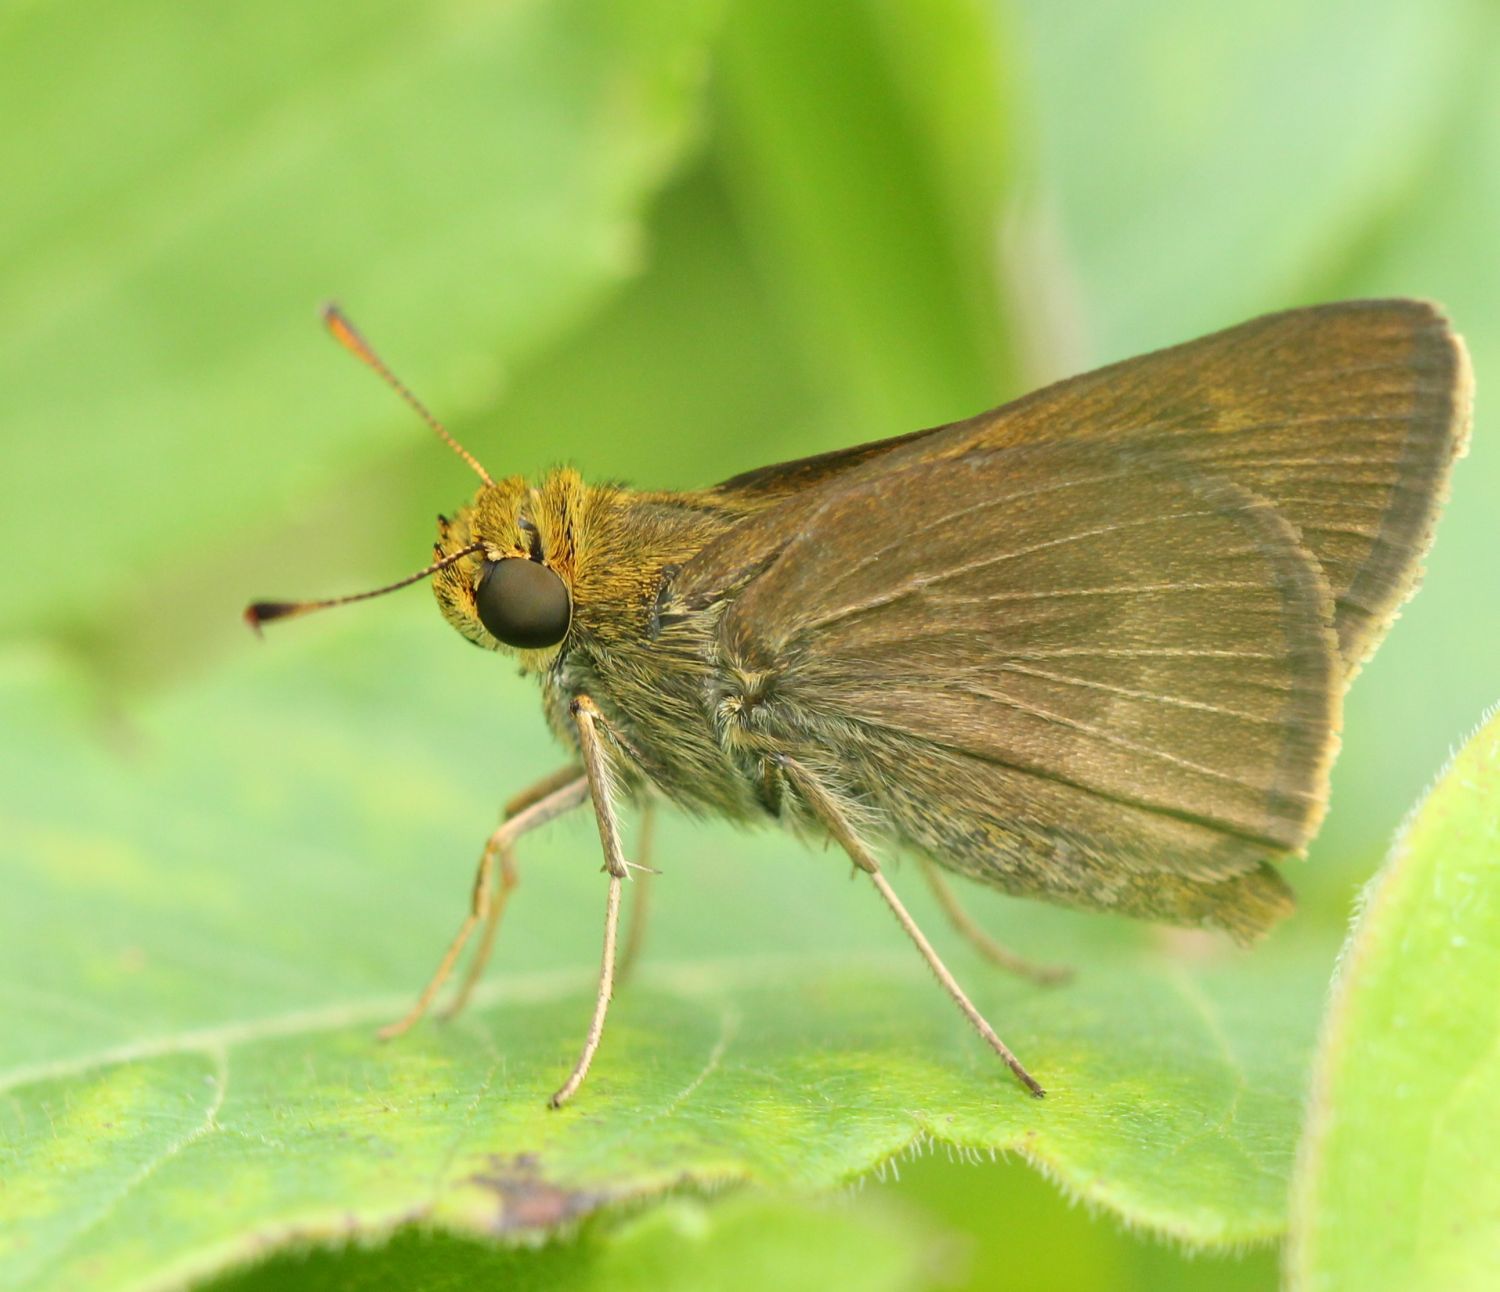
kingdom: Animalia
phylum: Arthropoda
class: Insecta
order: Lepidoptera
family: Hesperiidae
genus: Euphyes
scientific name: Euphyes vestris
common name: Dun skipper
